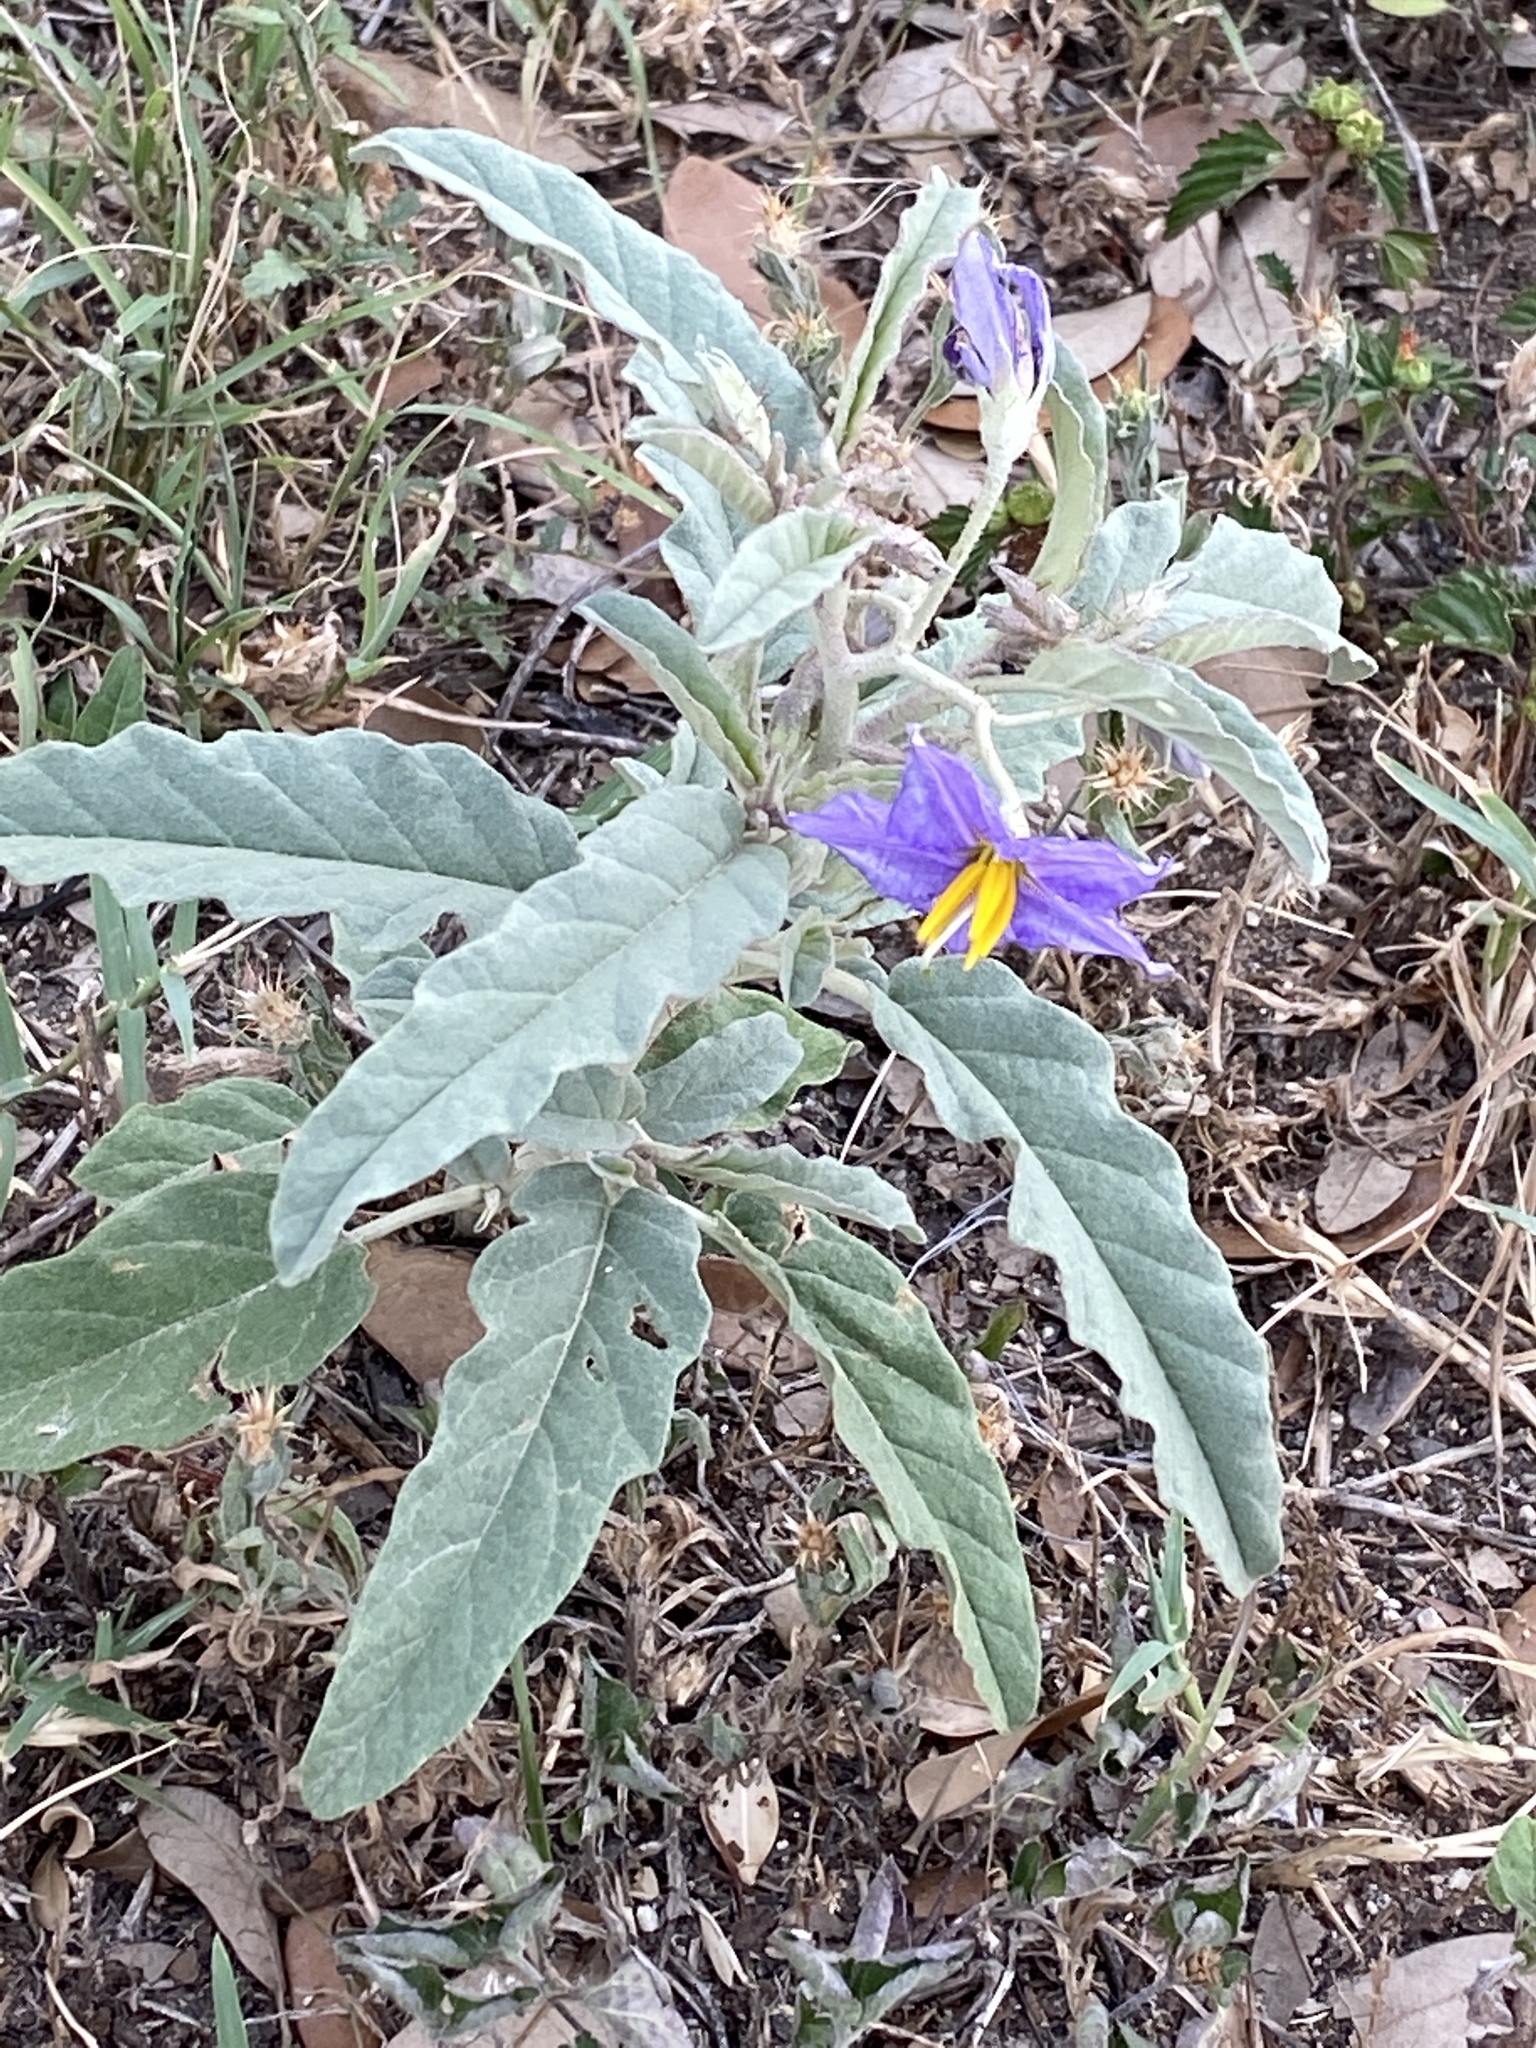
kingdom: Plantae
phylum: Tracheophyta
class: Magnoliopsida
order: Solanales
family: Solanaceae
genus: Solanum
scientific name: Solanum elaeagnifolium
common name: Silverleaf nightshade
